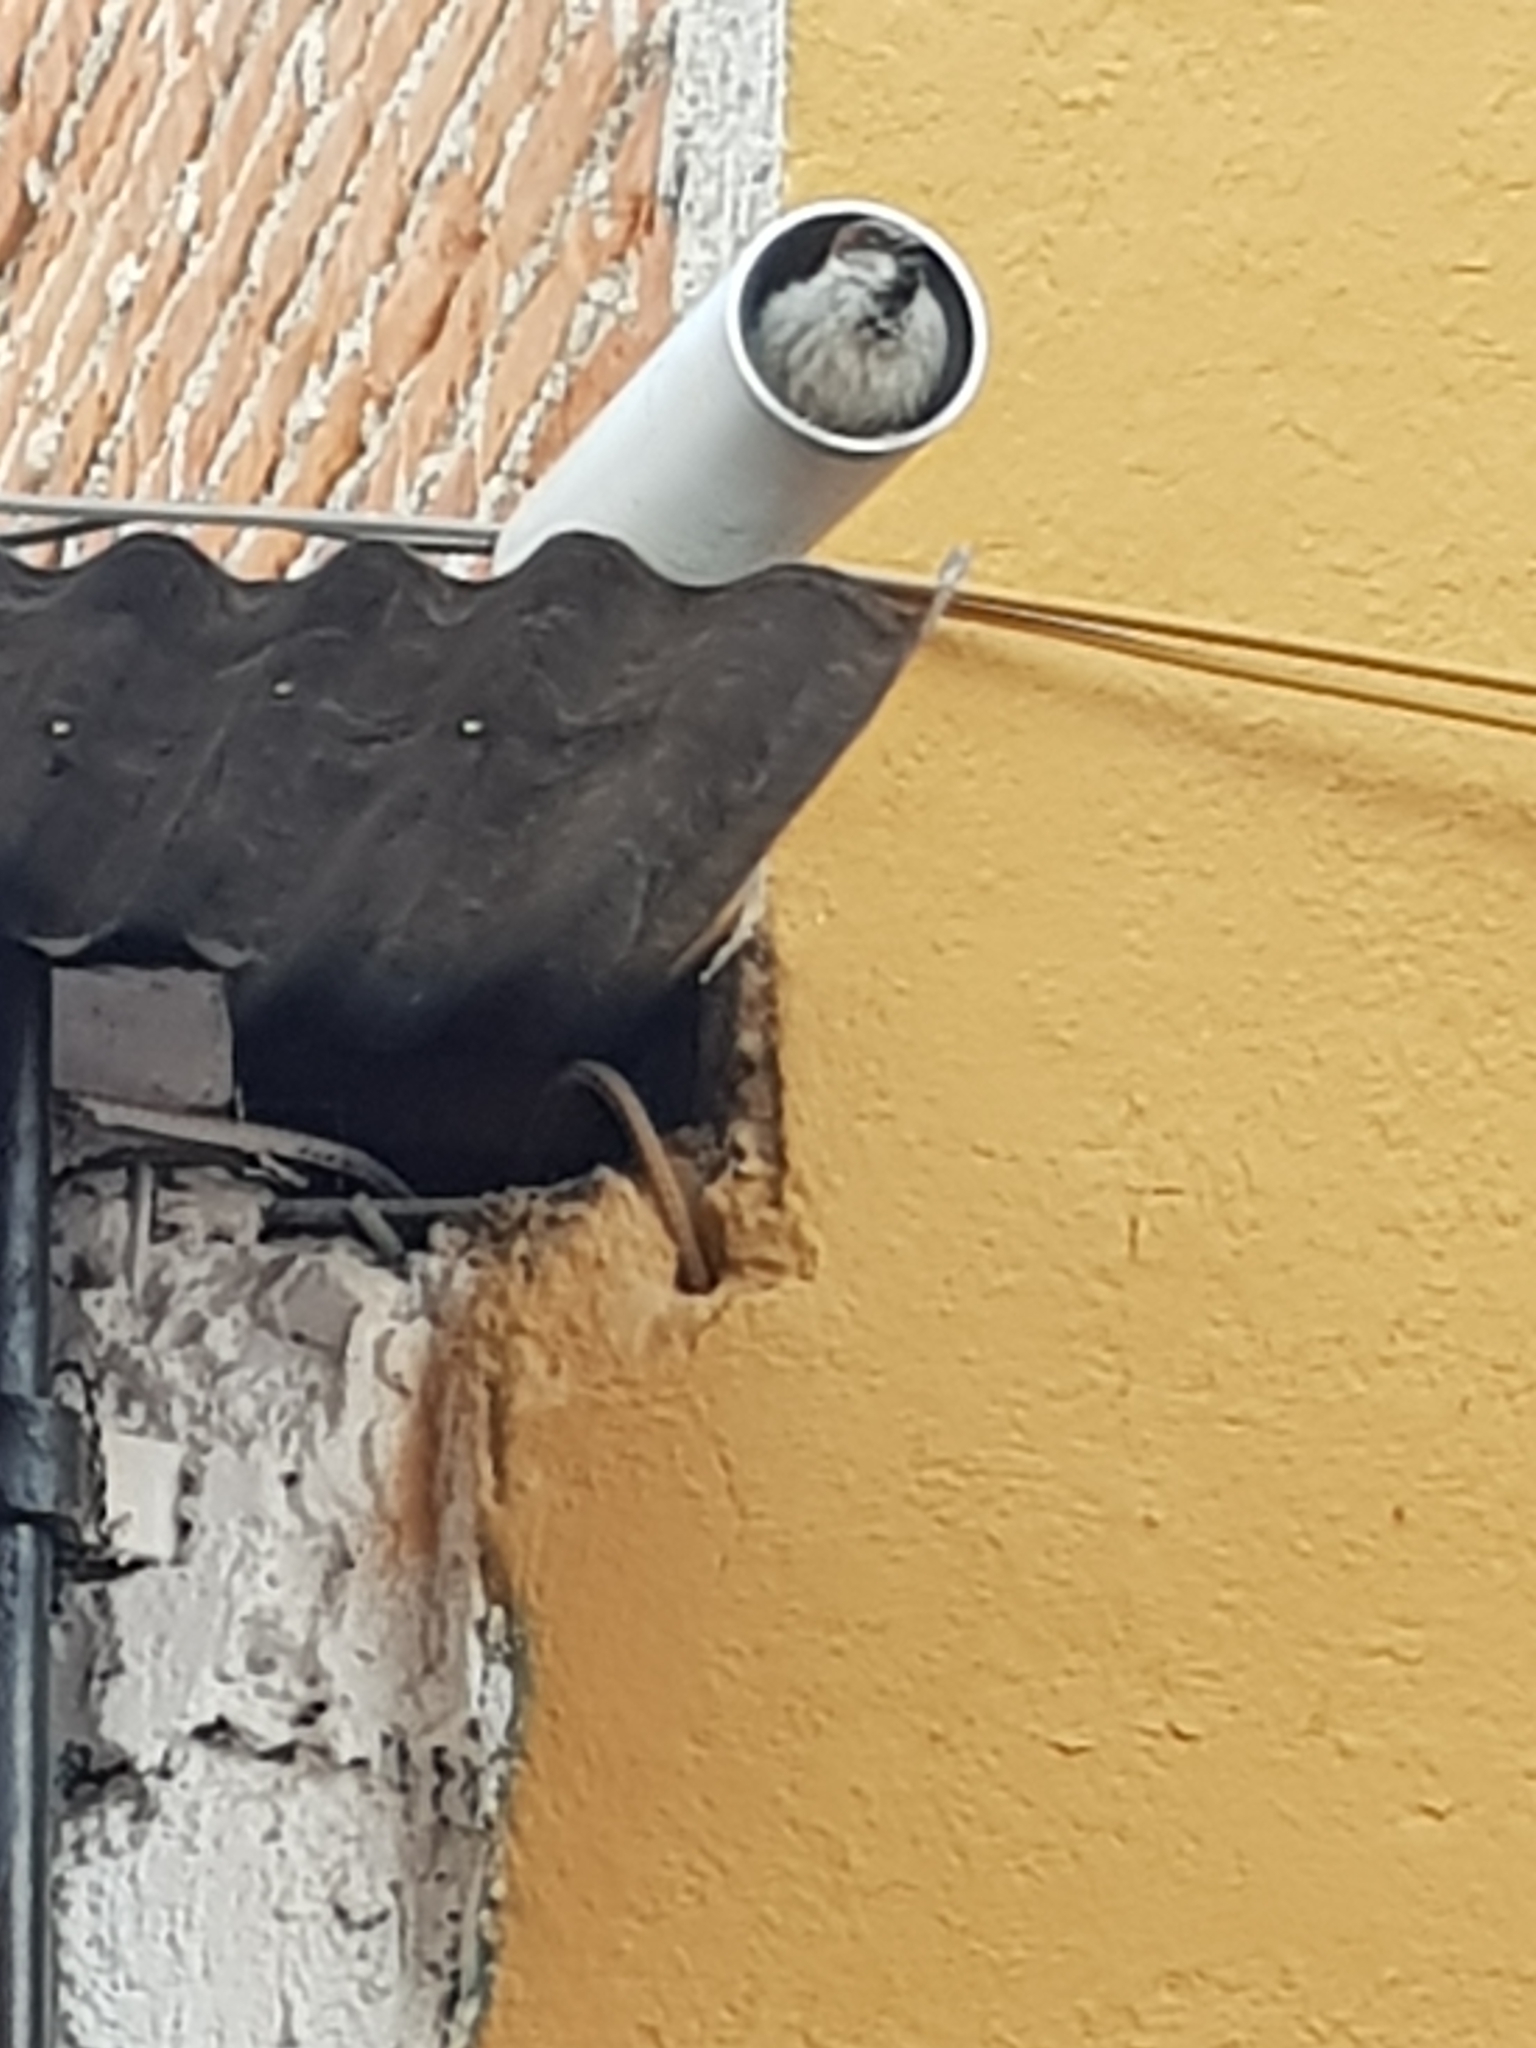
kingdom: Animalia
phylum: Chordata
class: Aves
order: Passeriformes
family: Passeridae
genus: Passer
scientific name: Passer domesticus
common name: House sparrow
